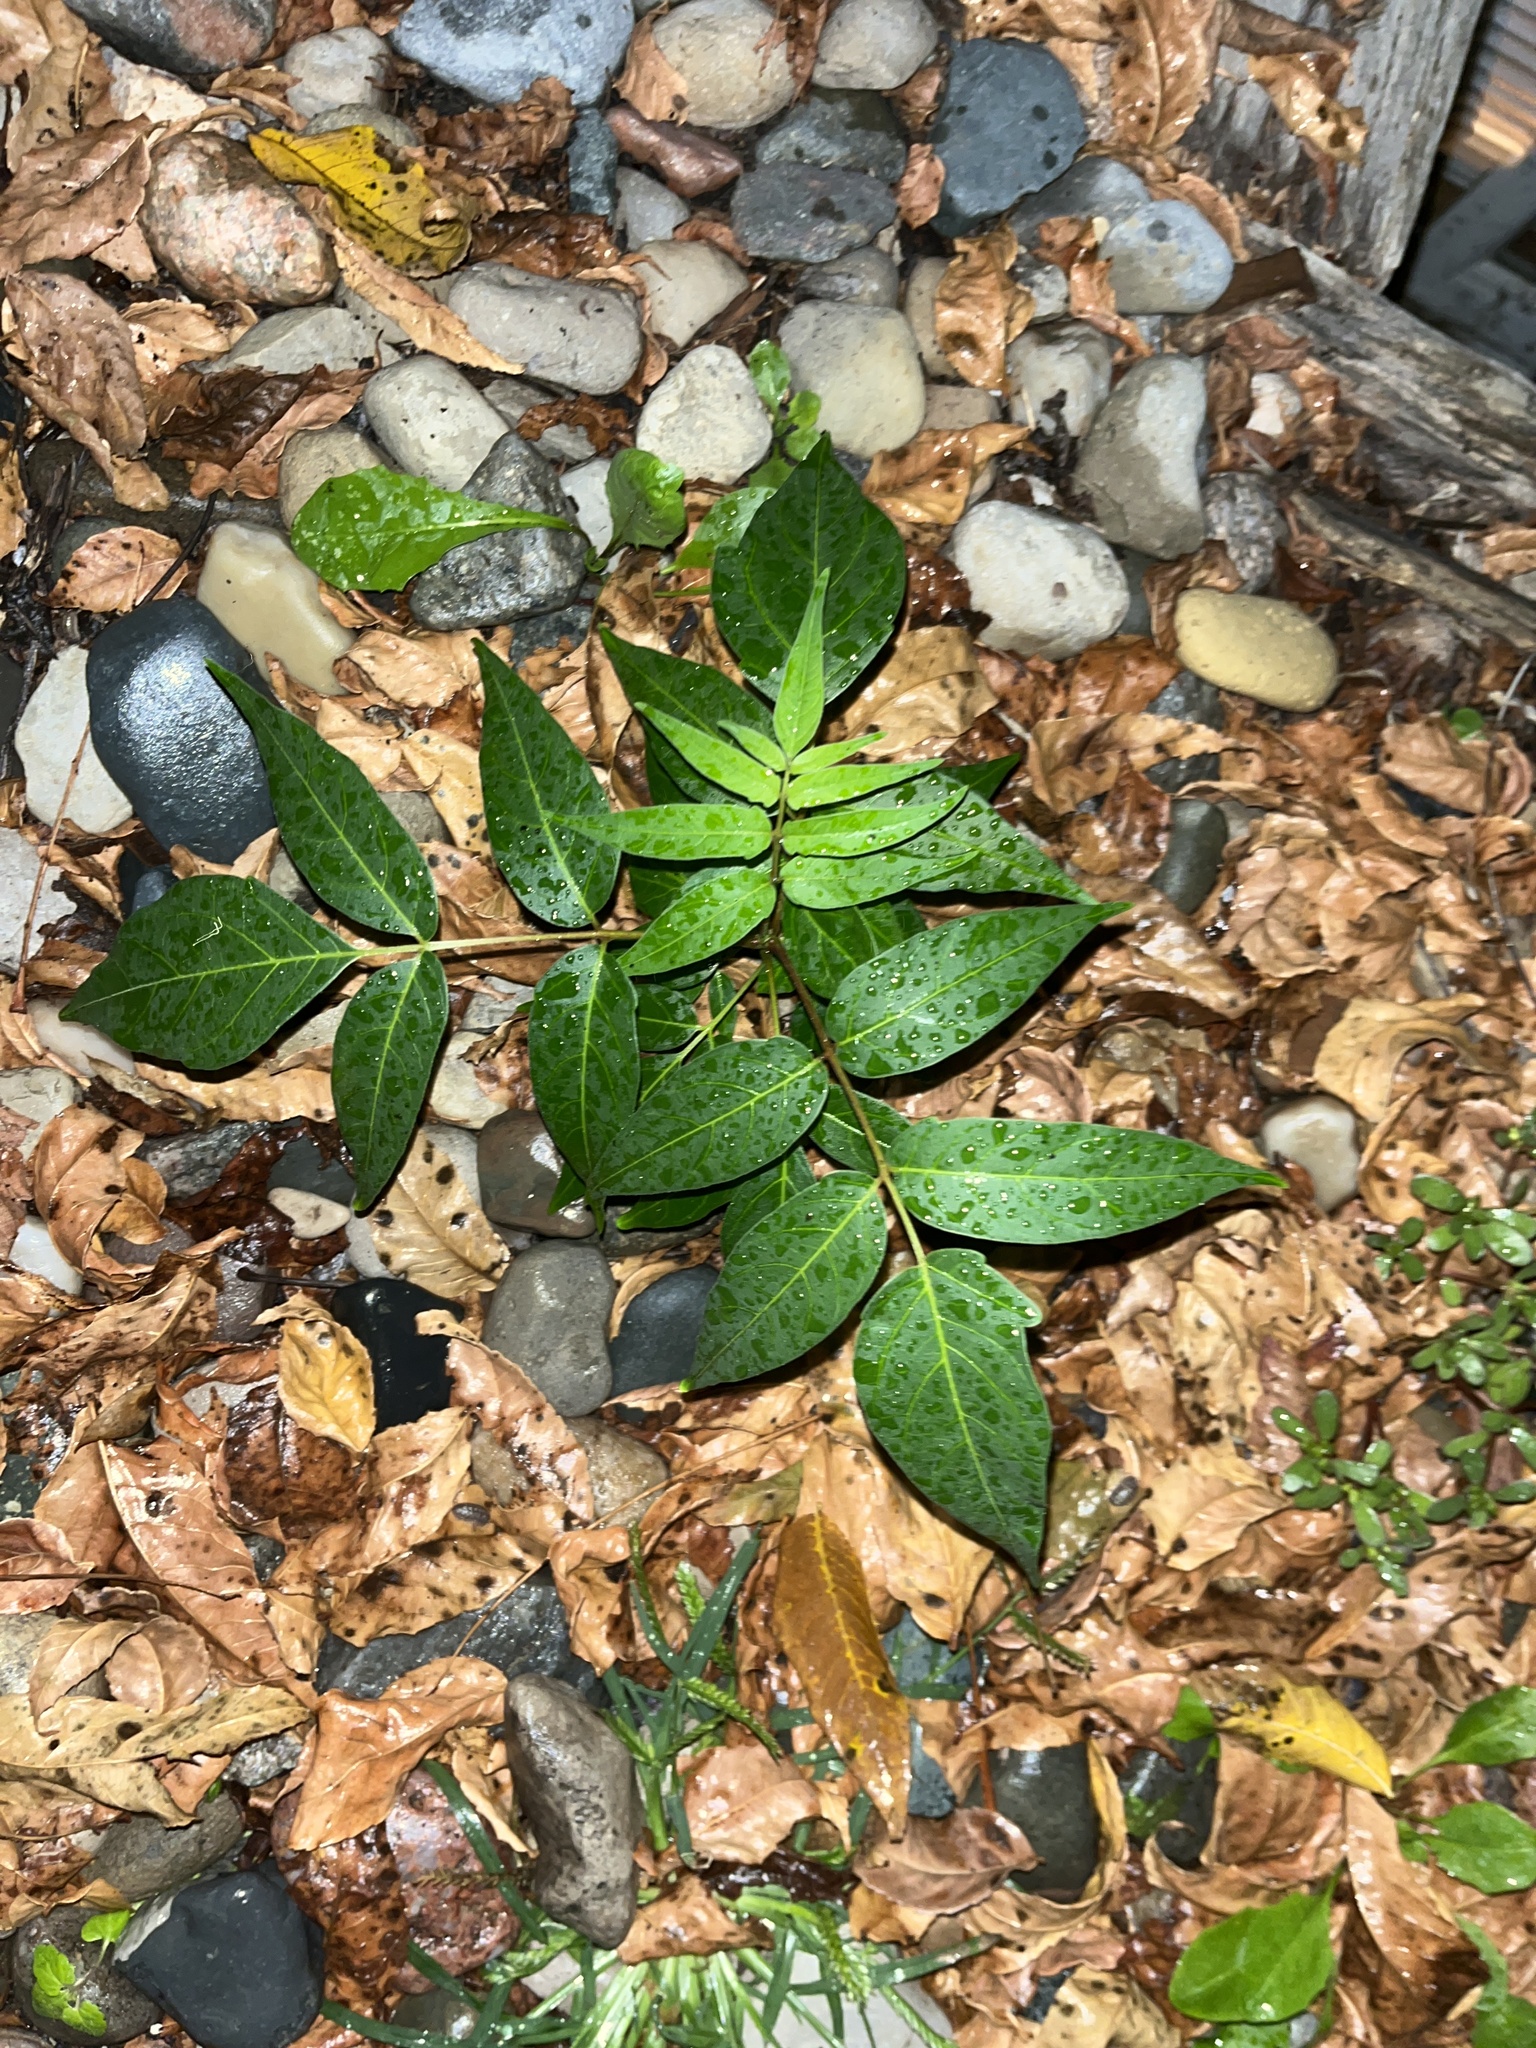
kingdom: Plantae
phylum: Tracheophyta
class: Magnoliopsida
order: Sapindales
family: Simaroubaceae
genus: Ailanthus
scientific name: Ailanthus altissima
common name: Tree-of-heaven
